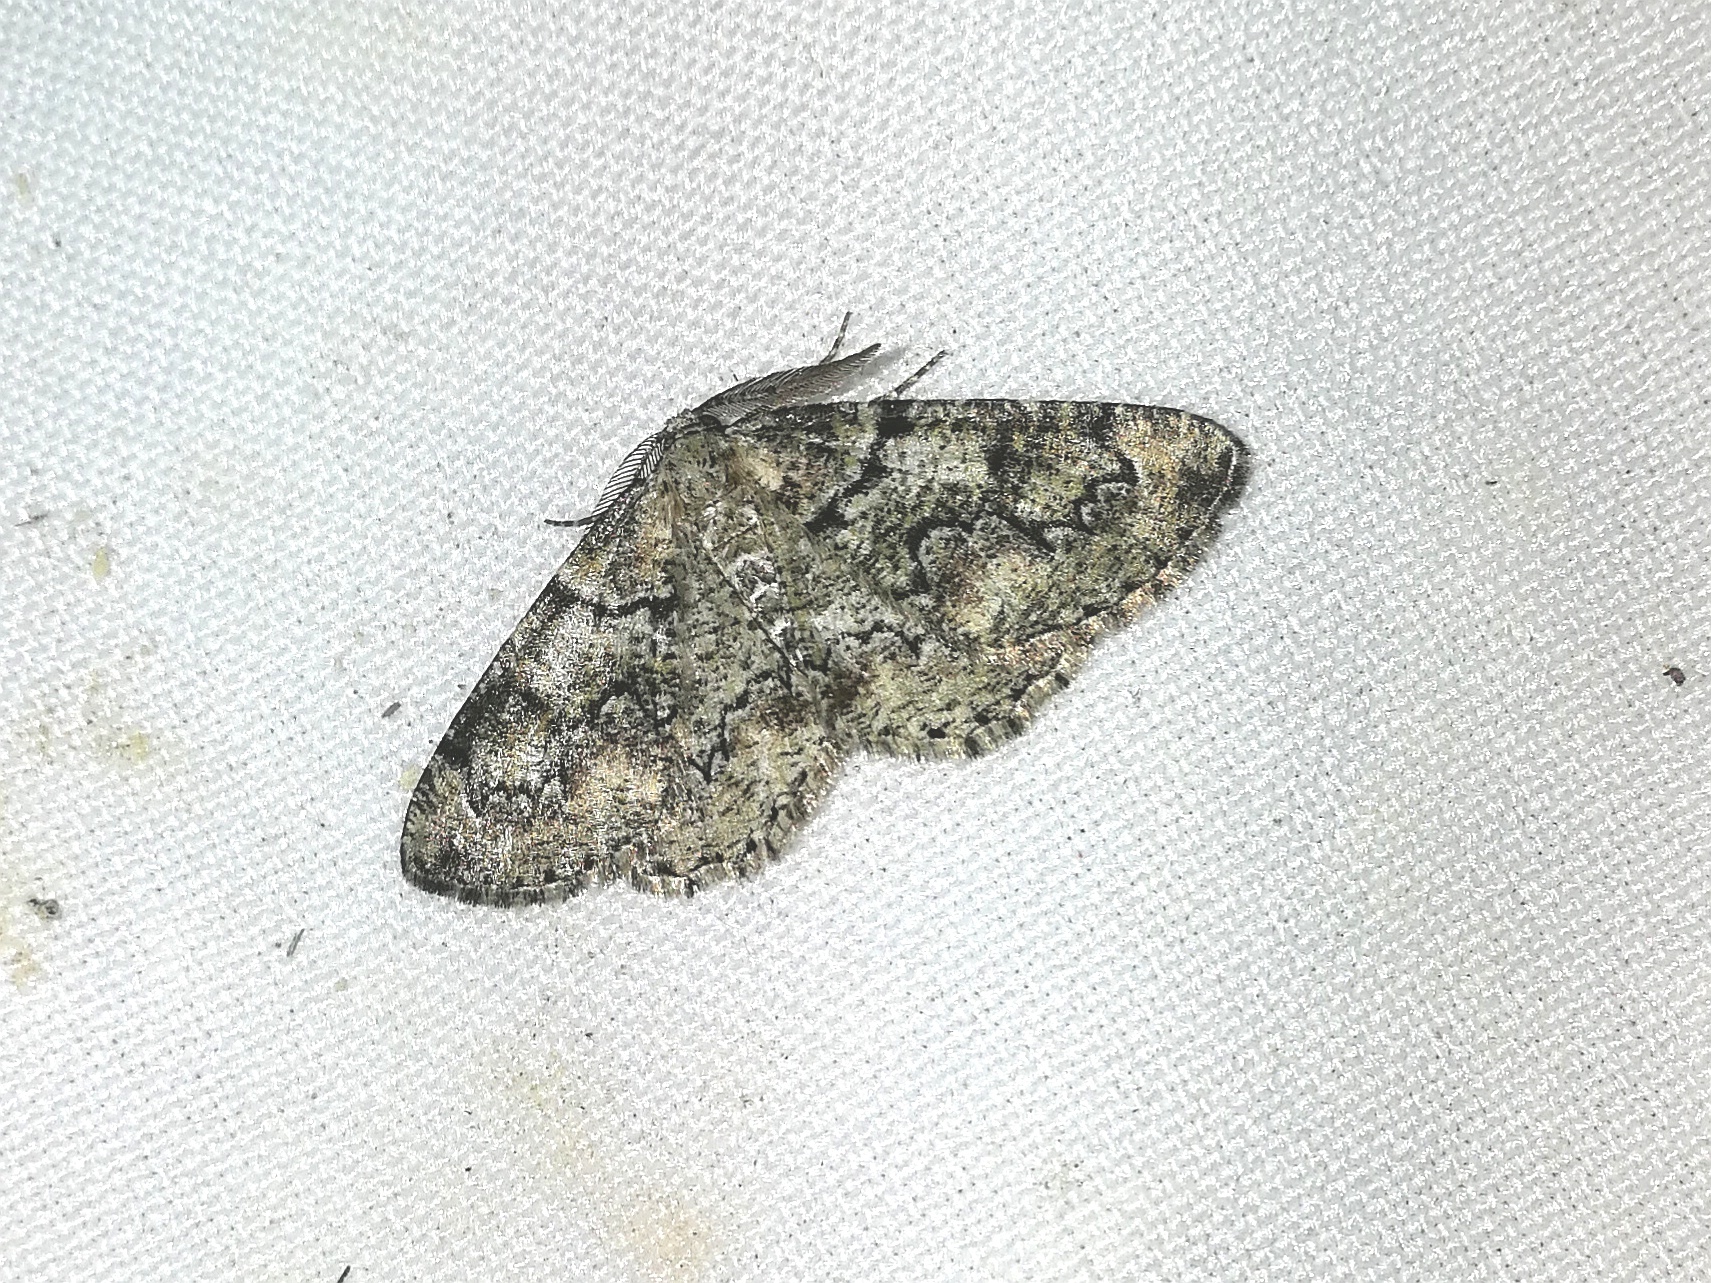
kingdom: Animalia
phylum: Arthropoda
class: Insecta
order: Lepidoptera
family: Geometridae
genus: Cleorodes
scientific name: Cleorodes lichenaria
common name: Brussels lace
